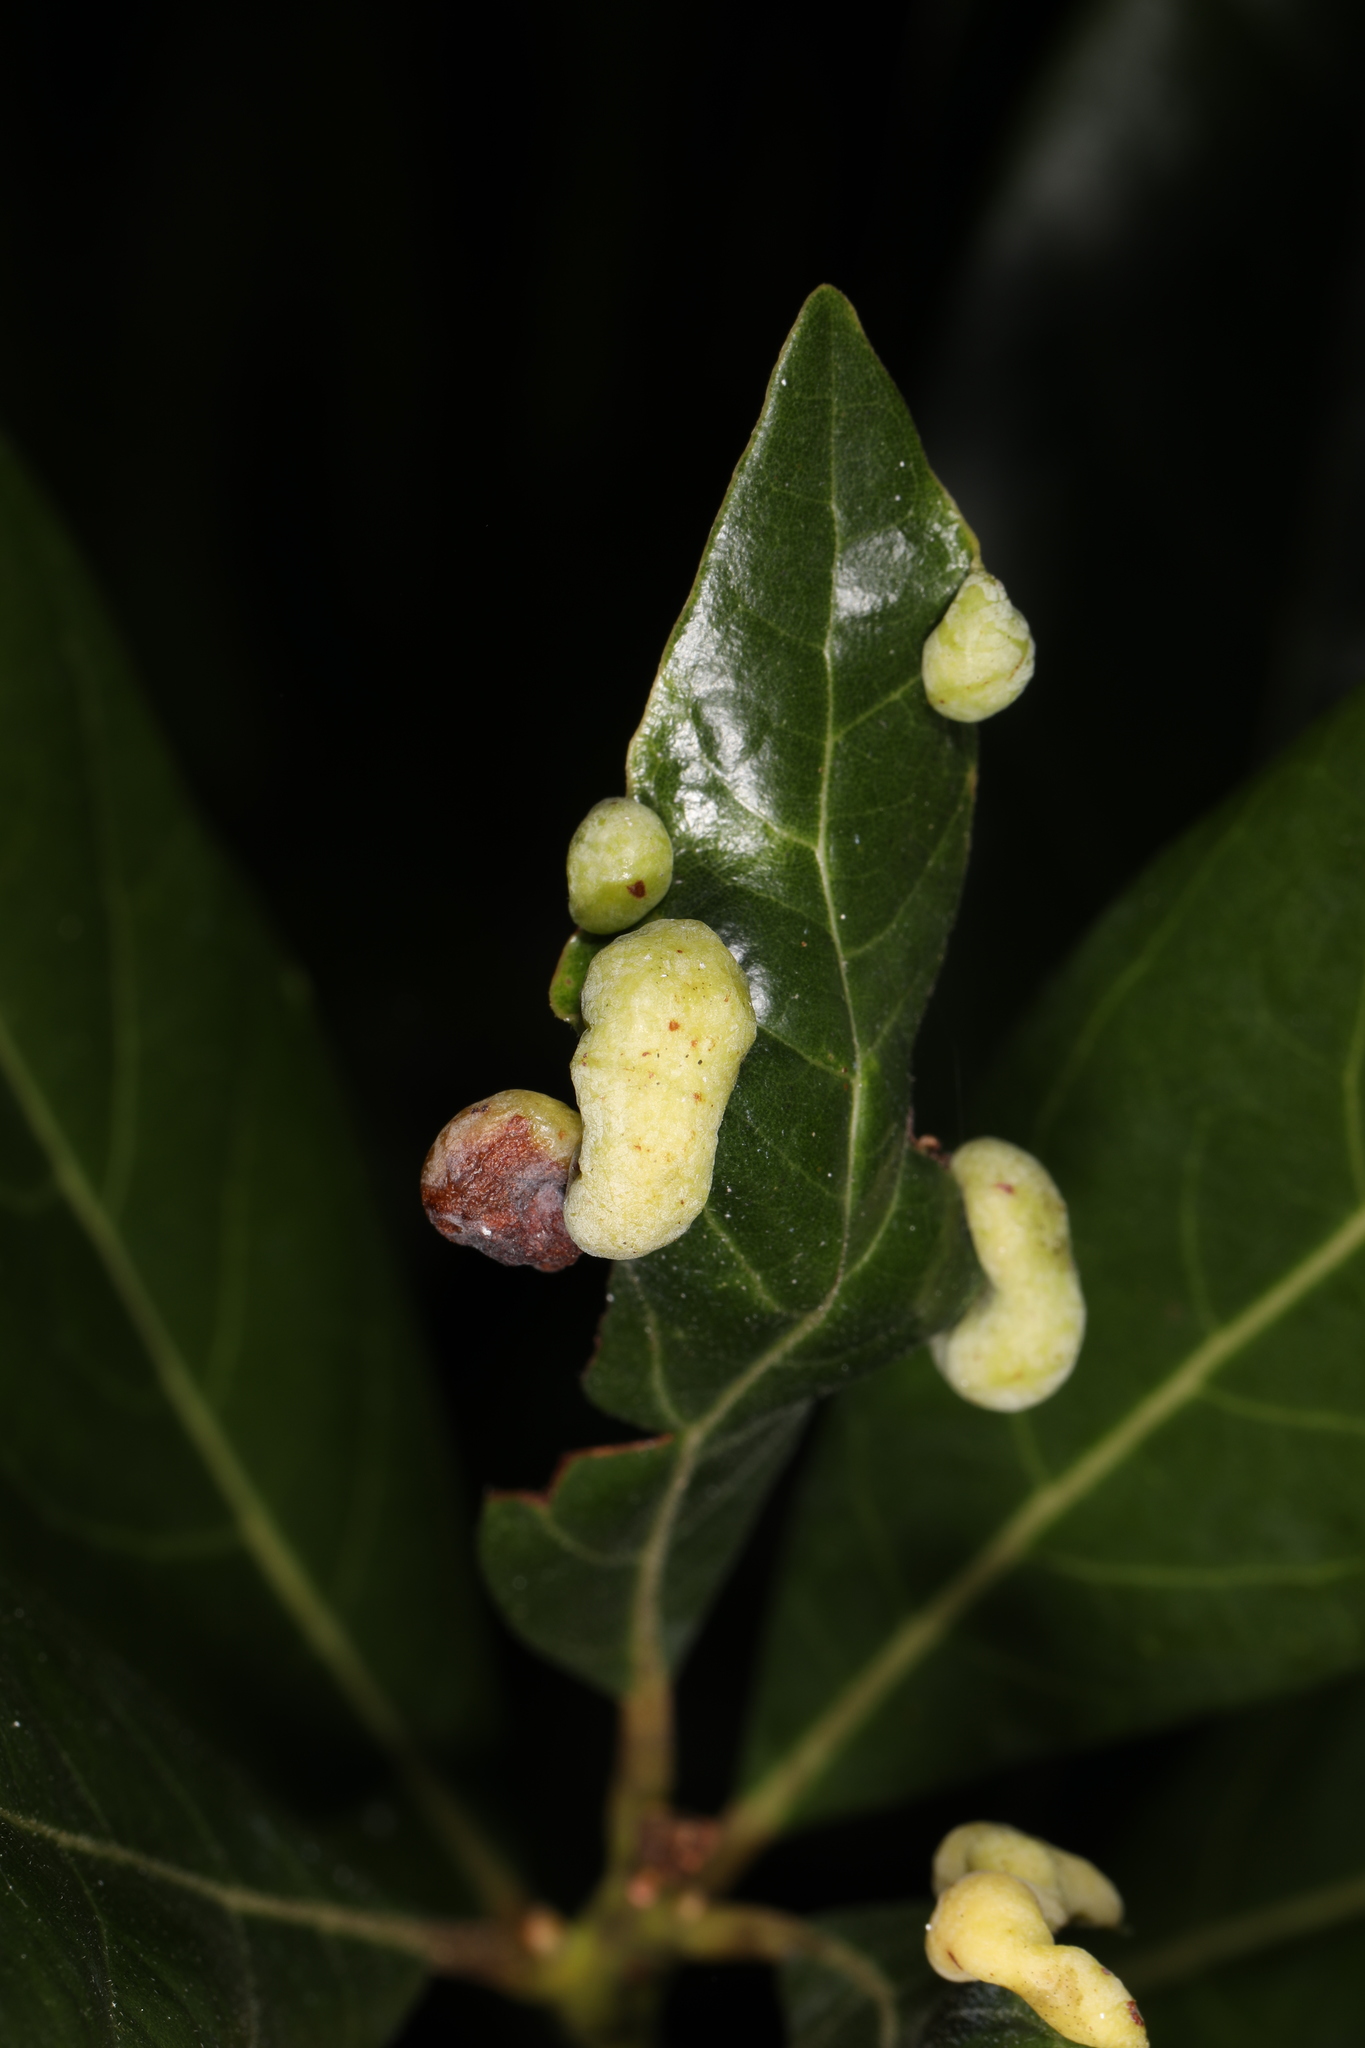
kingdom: Animalia
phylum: Arthropoda
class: Insecta
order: Hemiptera
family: Triozidae
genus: Trioza
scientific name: Trioza magnoliae
